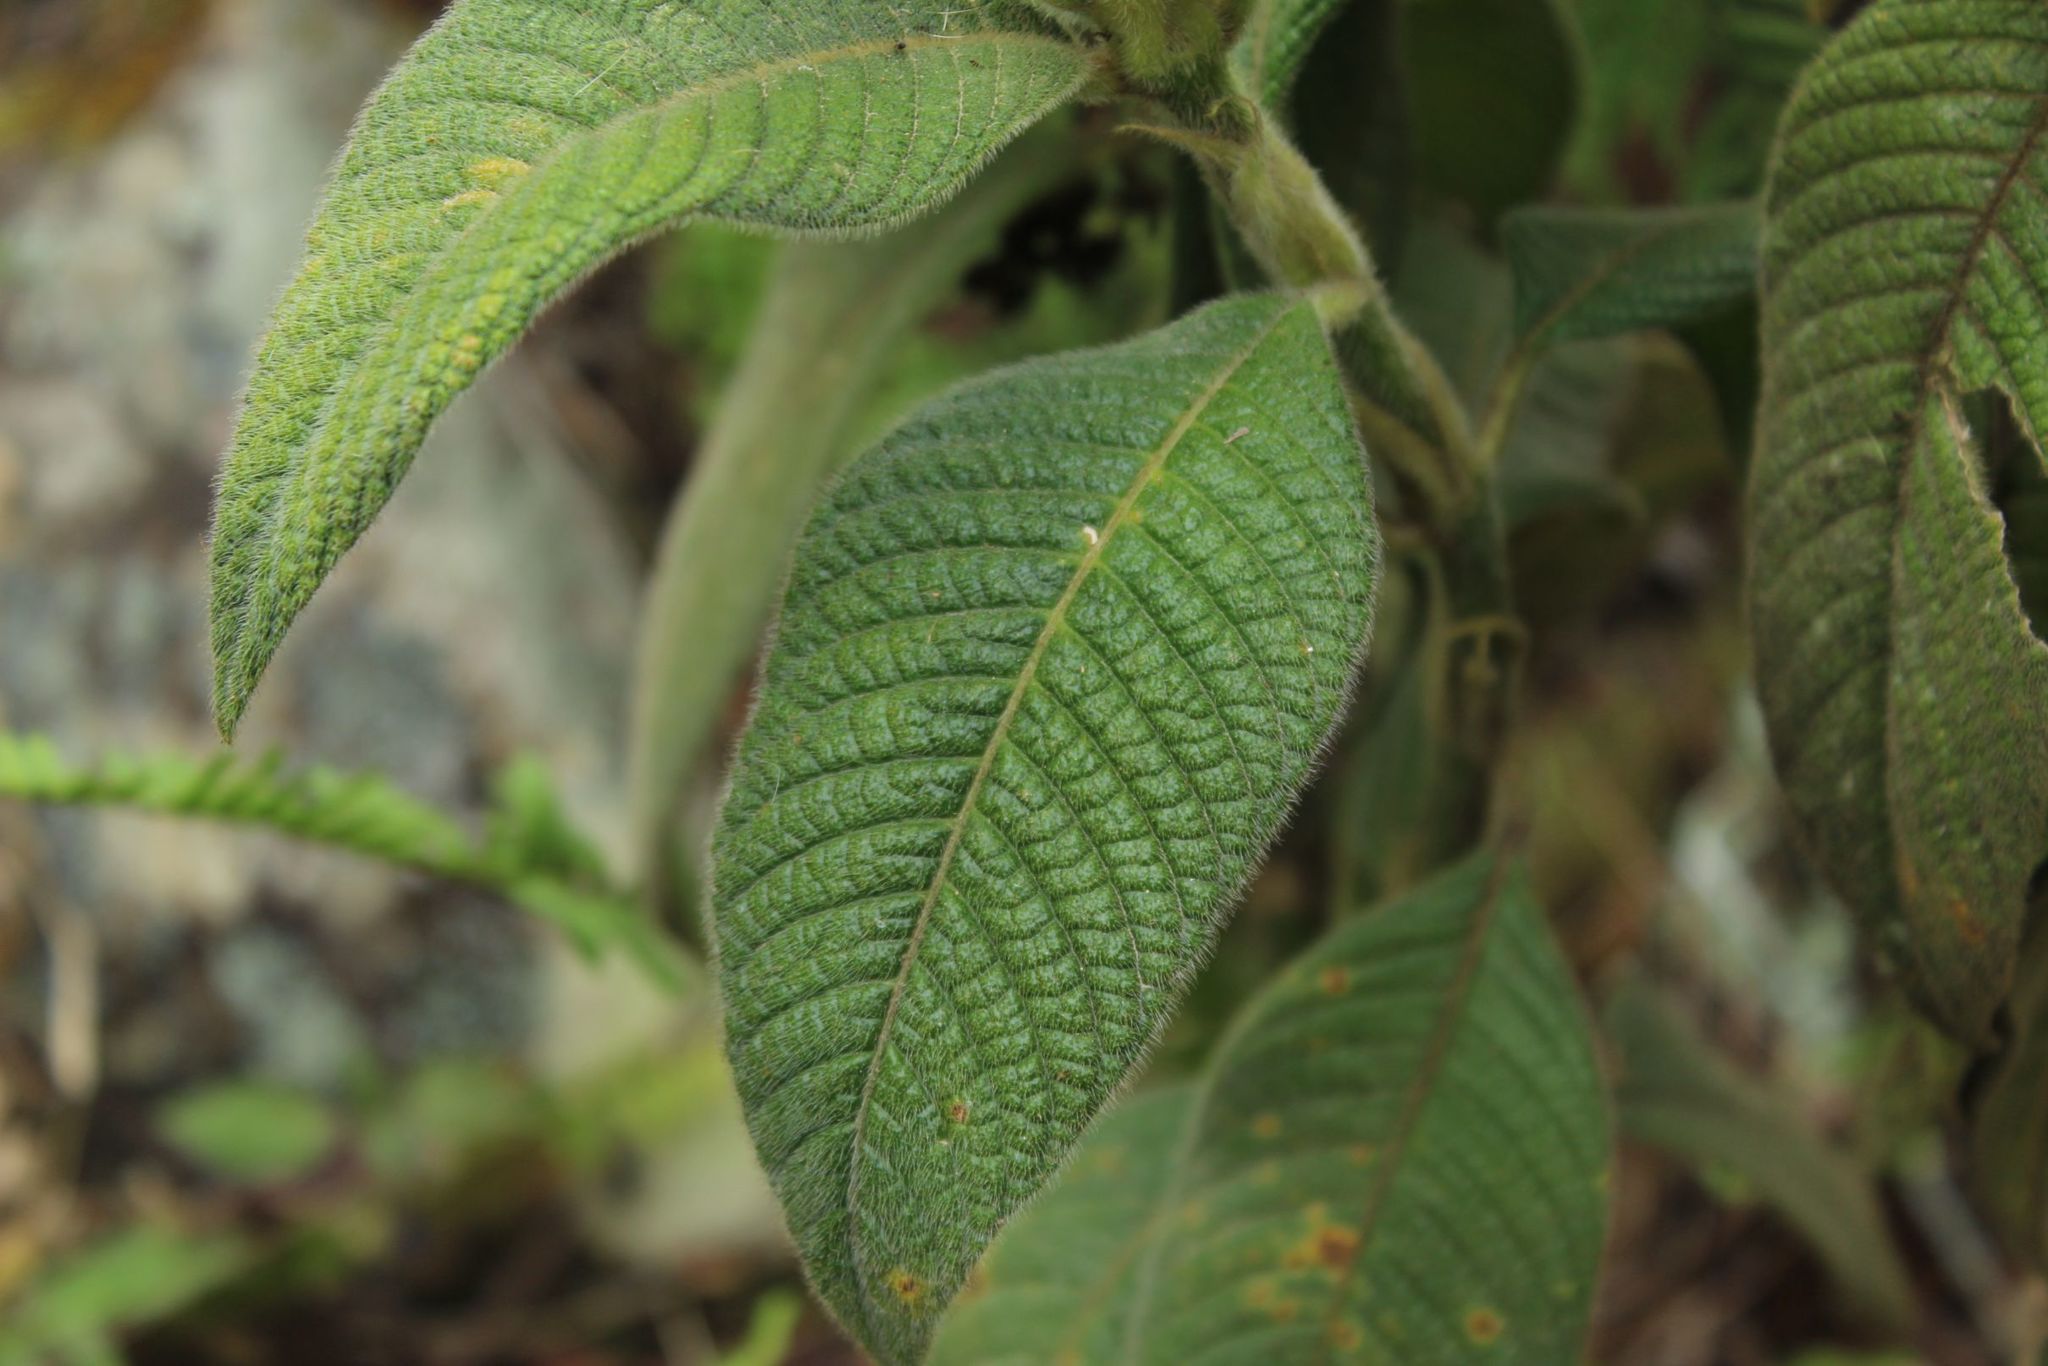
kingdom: Plantae
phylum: Tracheophyta
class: Magnoliopsida
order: Gentianales
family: Rubiaceae
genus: Palicourea
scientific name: Palicourea erythrocephala
